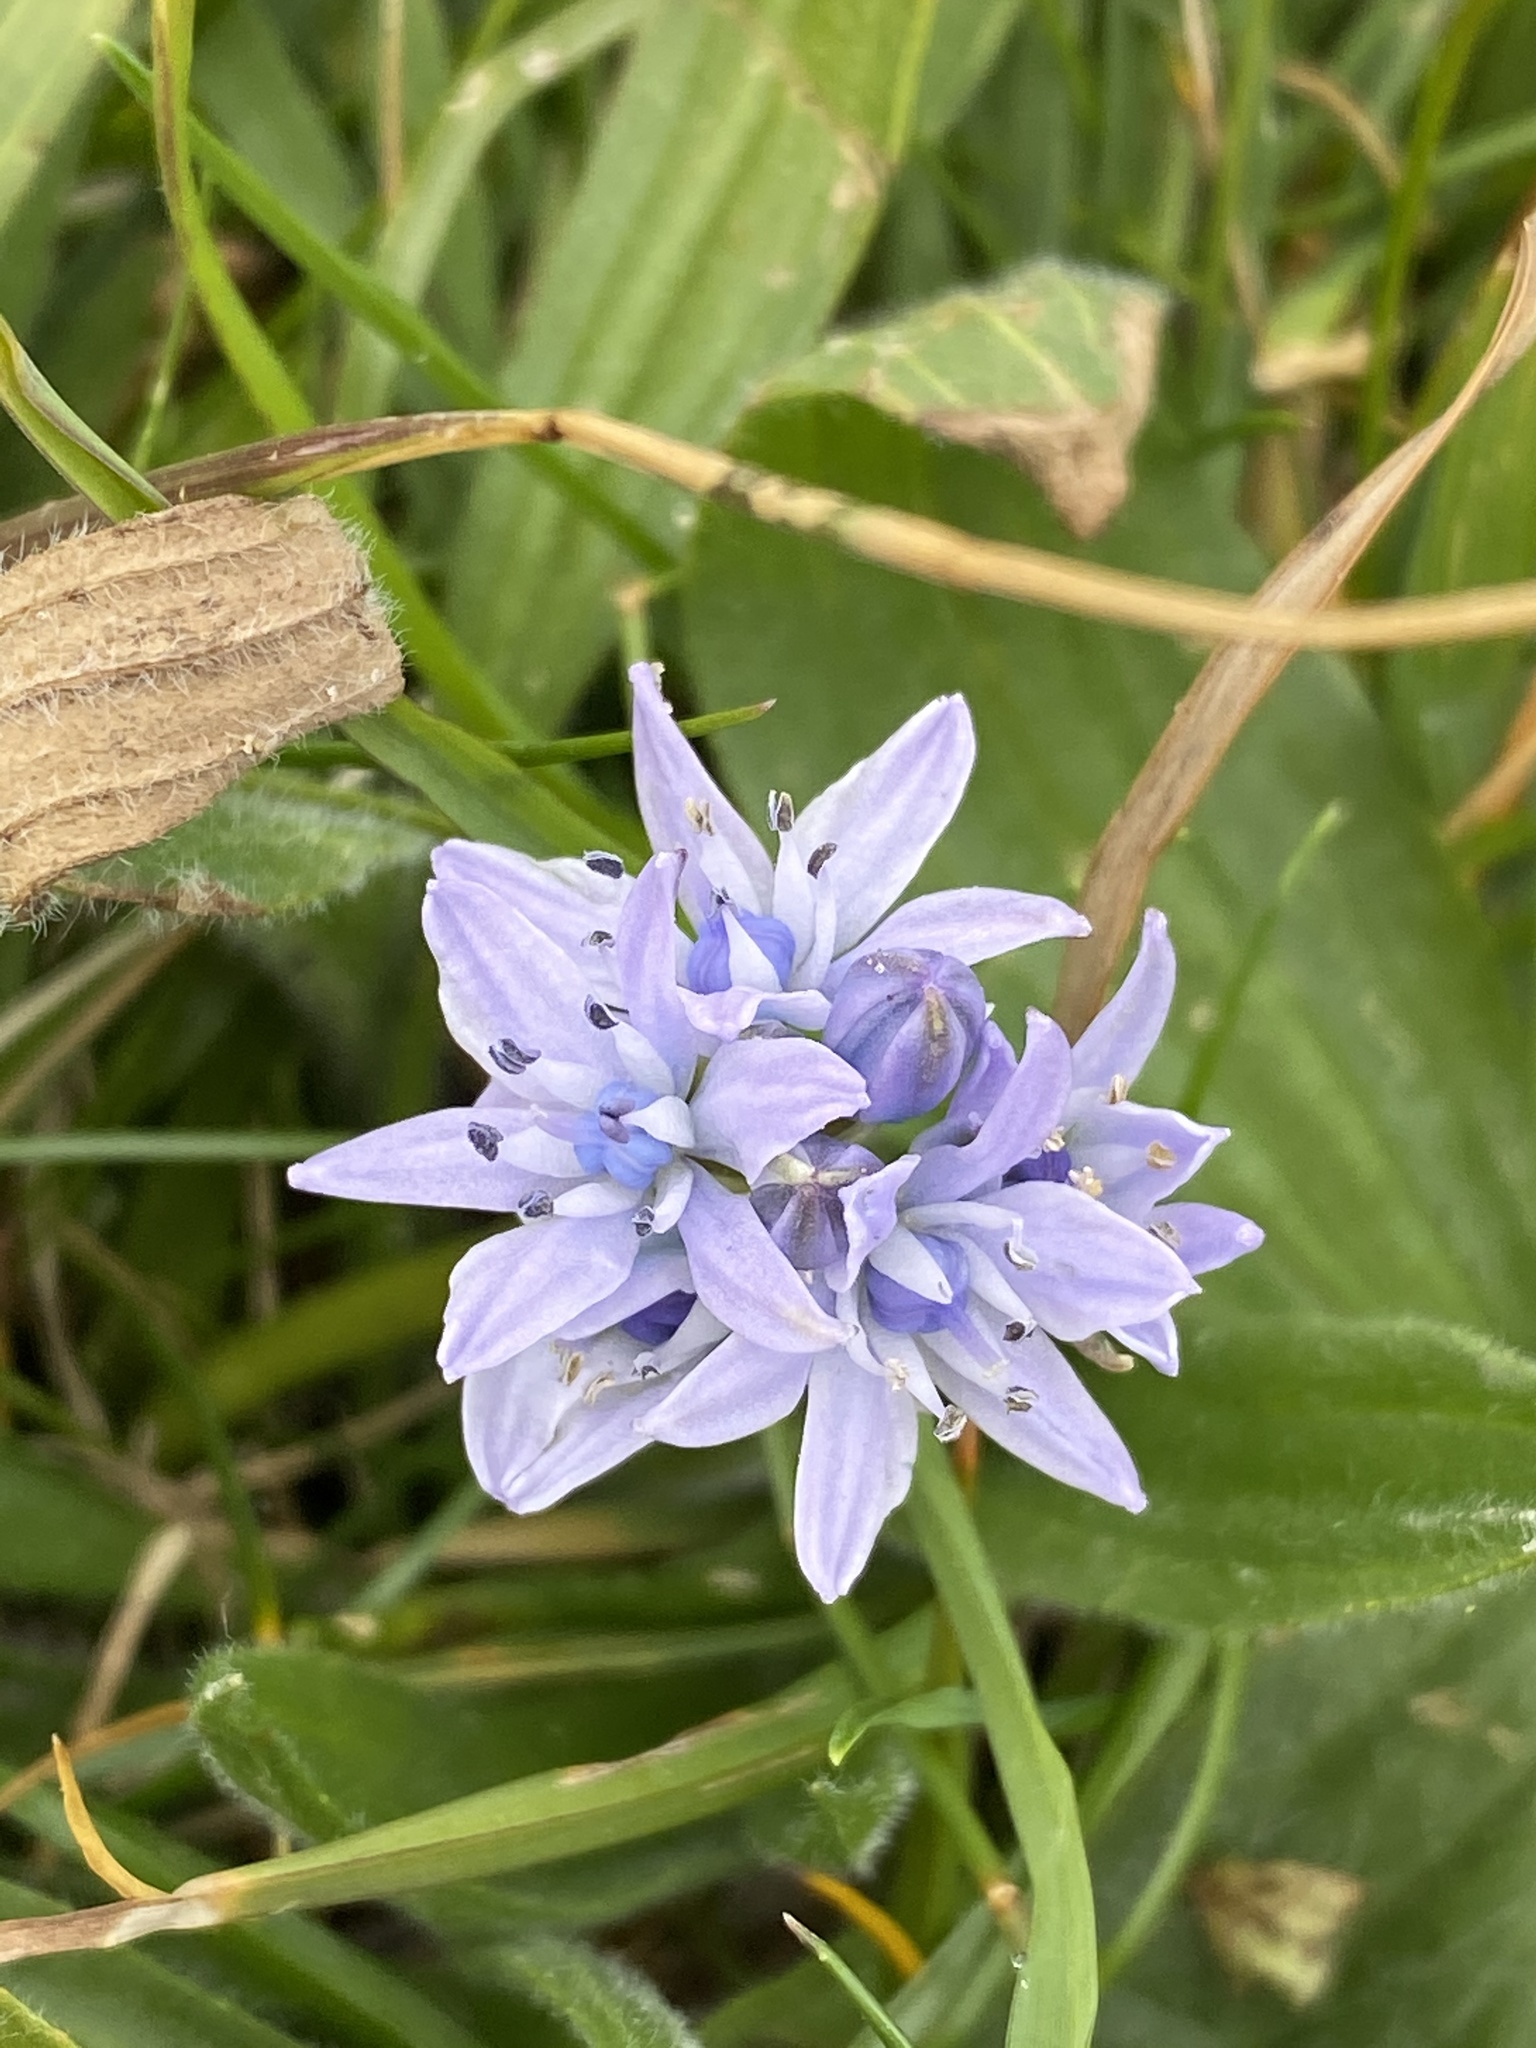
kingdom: Plantae
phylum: Tracheophyta
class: Liliopsida
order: Asparagales
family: Asparagaceae
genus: Scilla
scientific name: Scilla verna
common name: Spring squill
